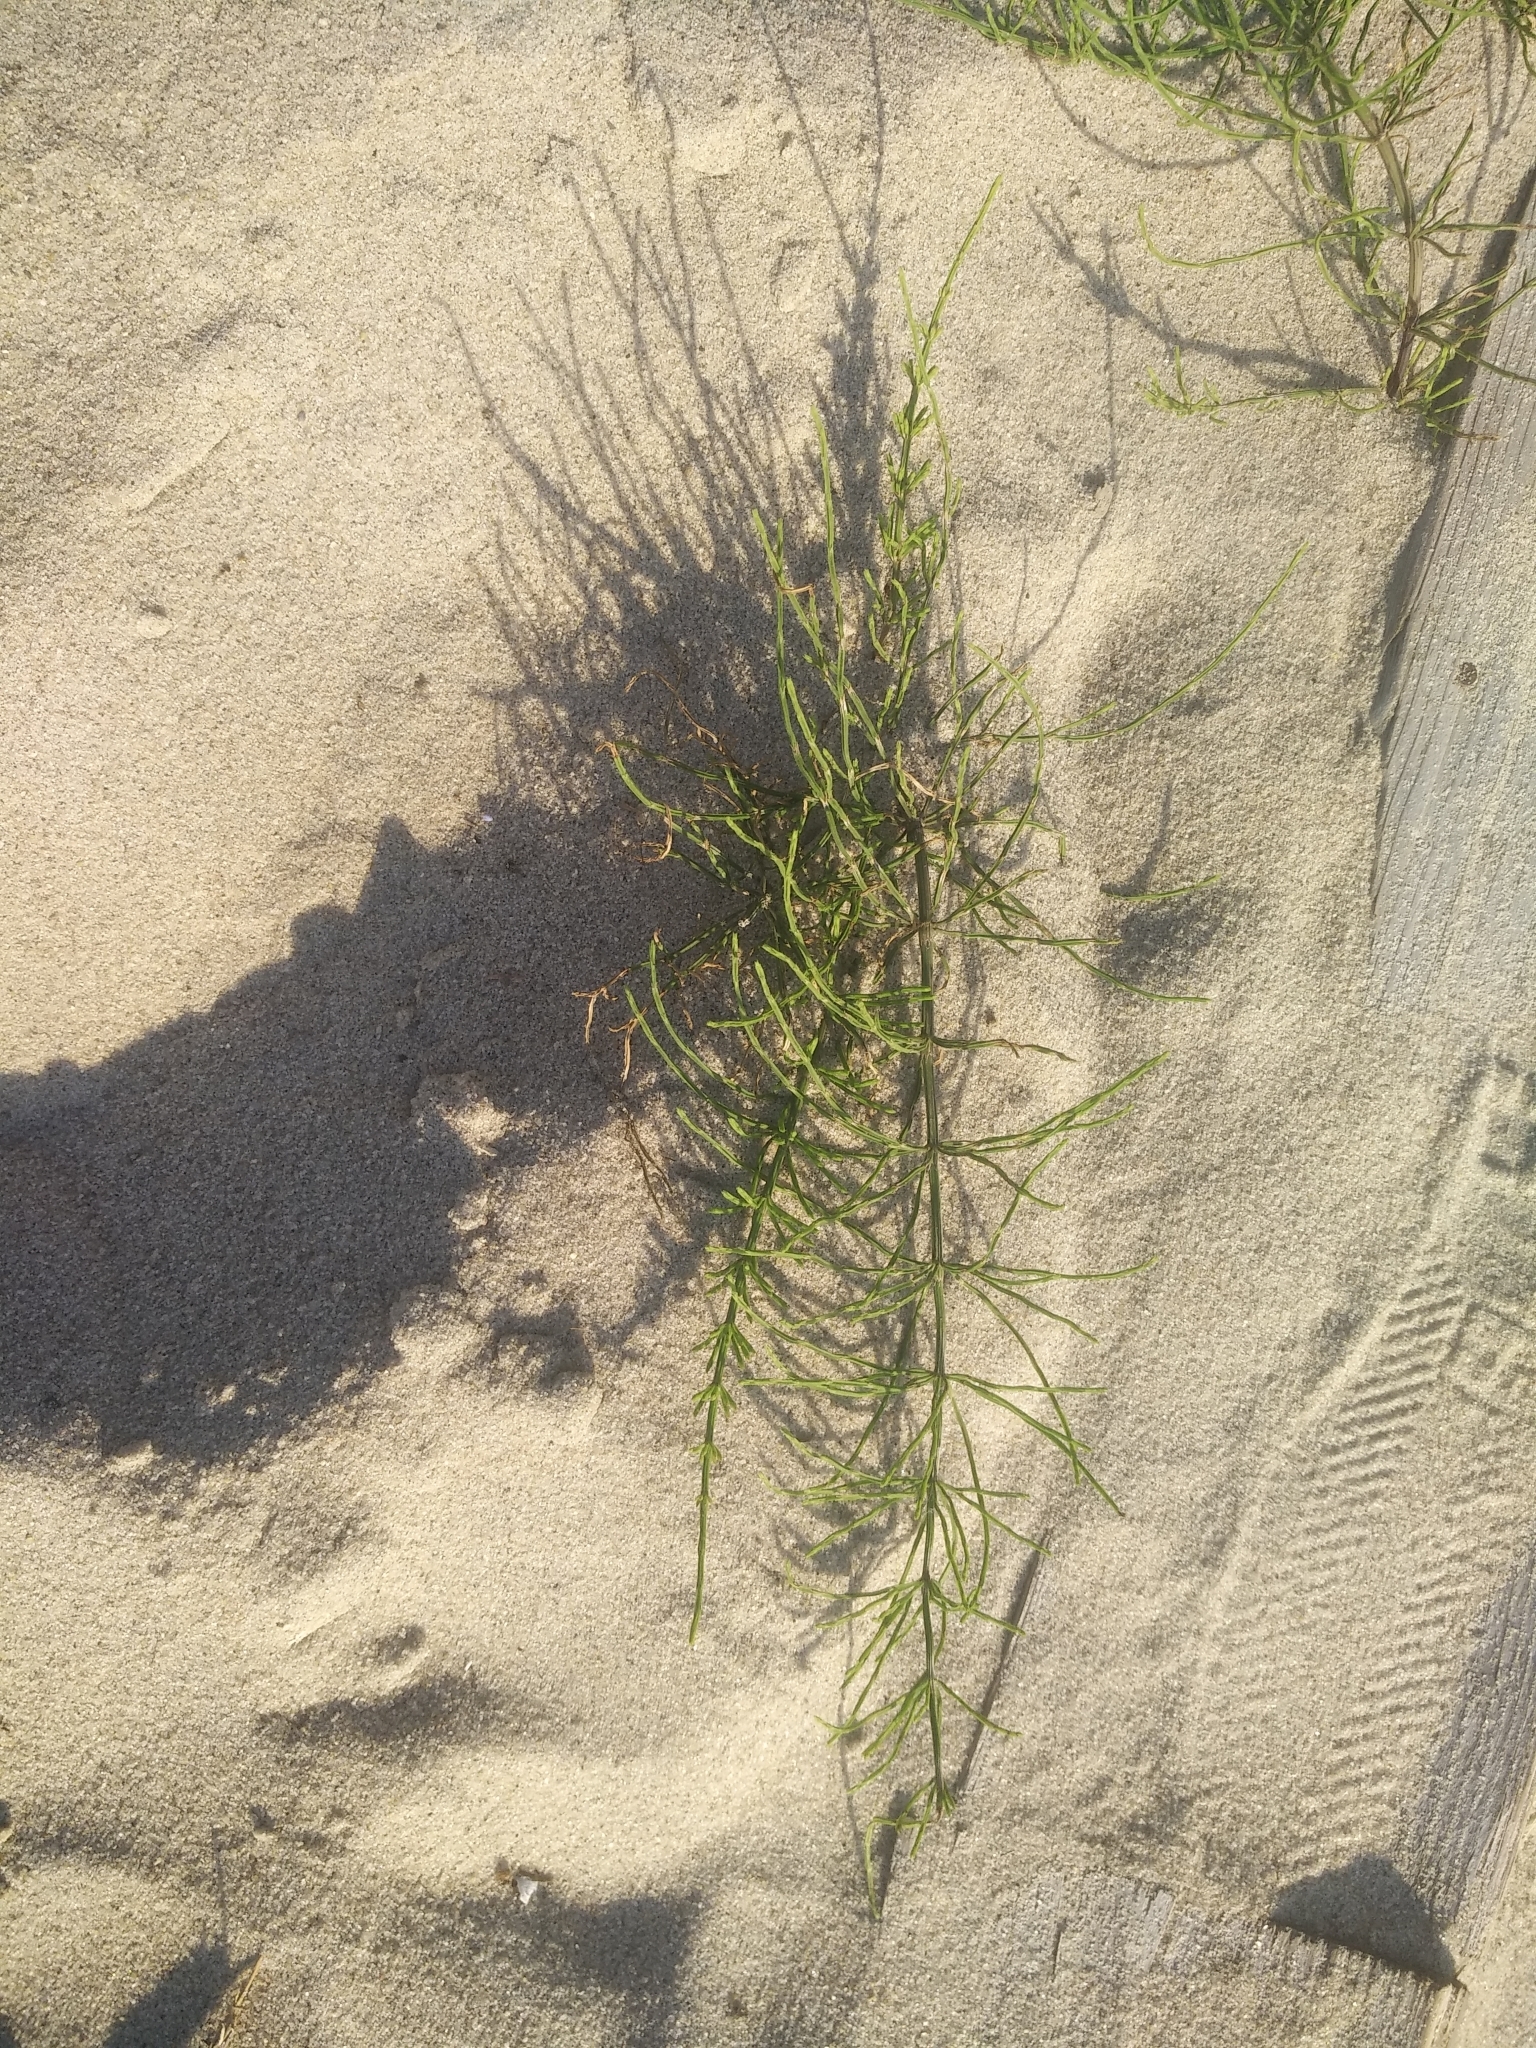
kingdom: Plantae
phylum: Tracheophyta
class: Polypodiopsida
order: Equisetales
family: Equisetaceae
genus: Equisetum
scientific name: Equisetum arvense
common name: Field horsetail
